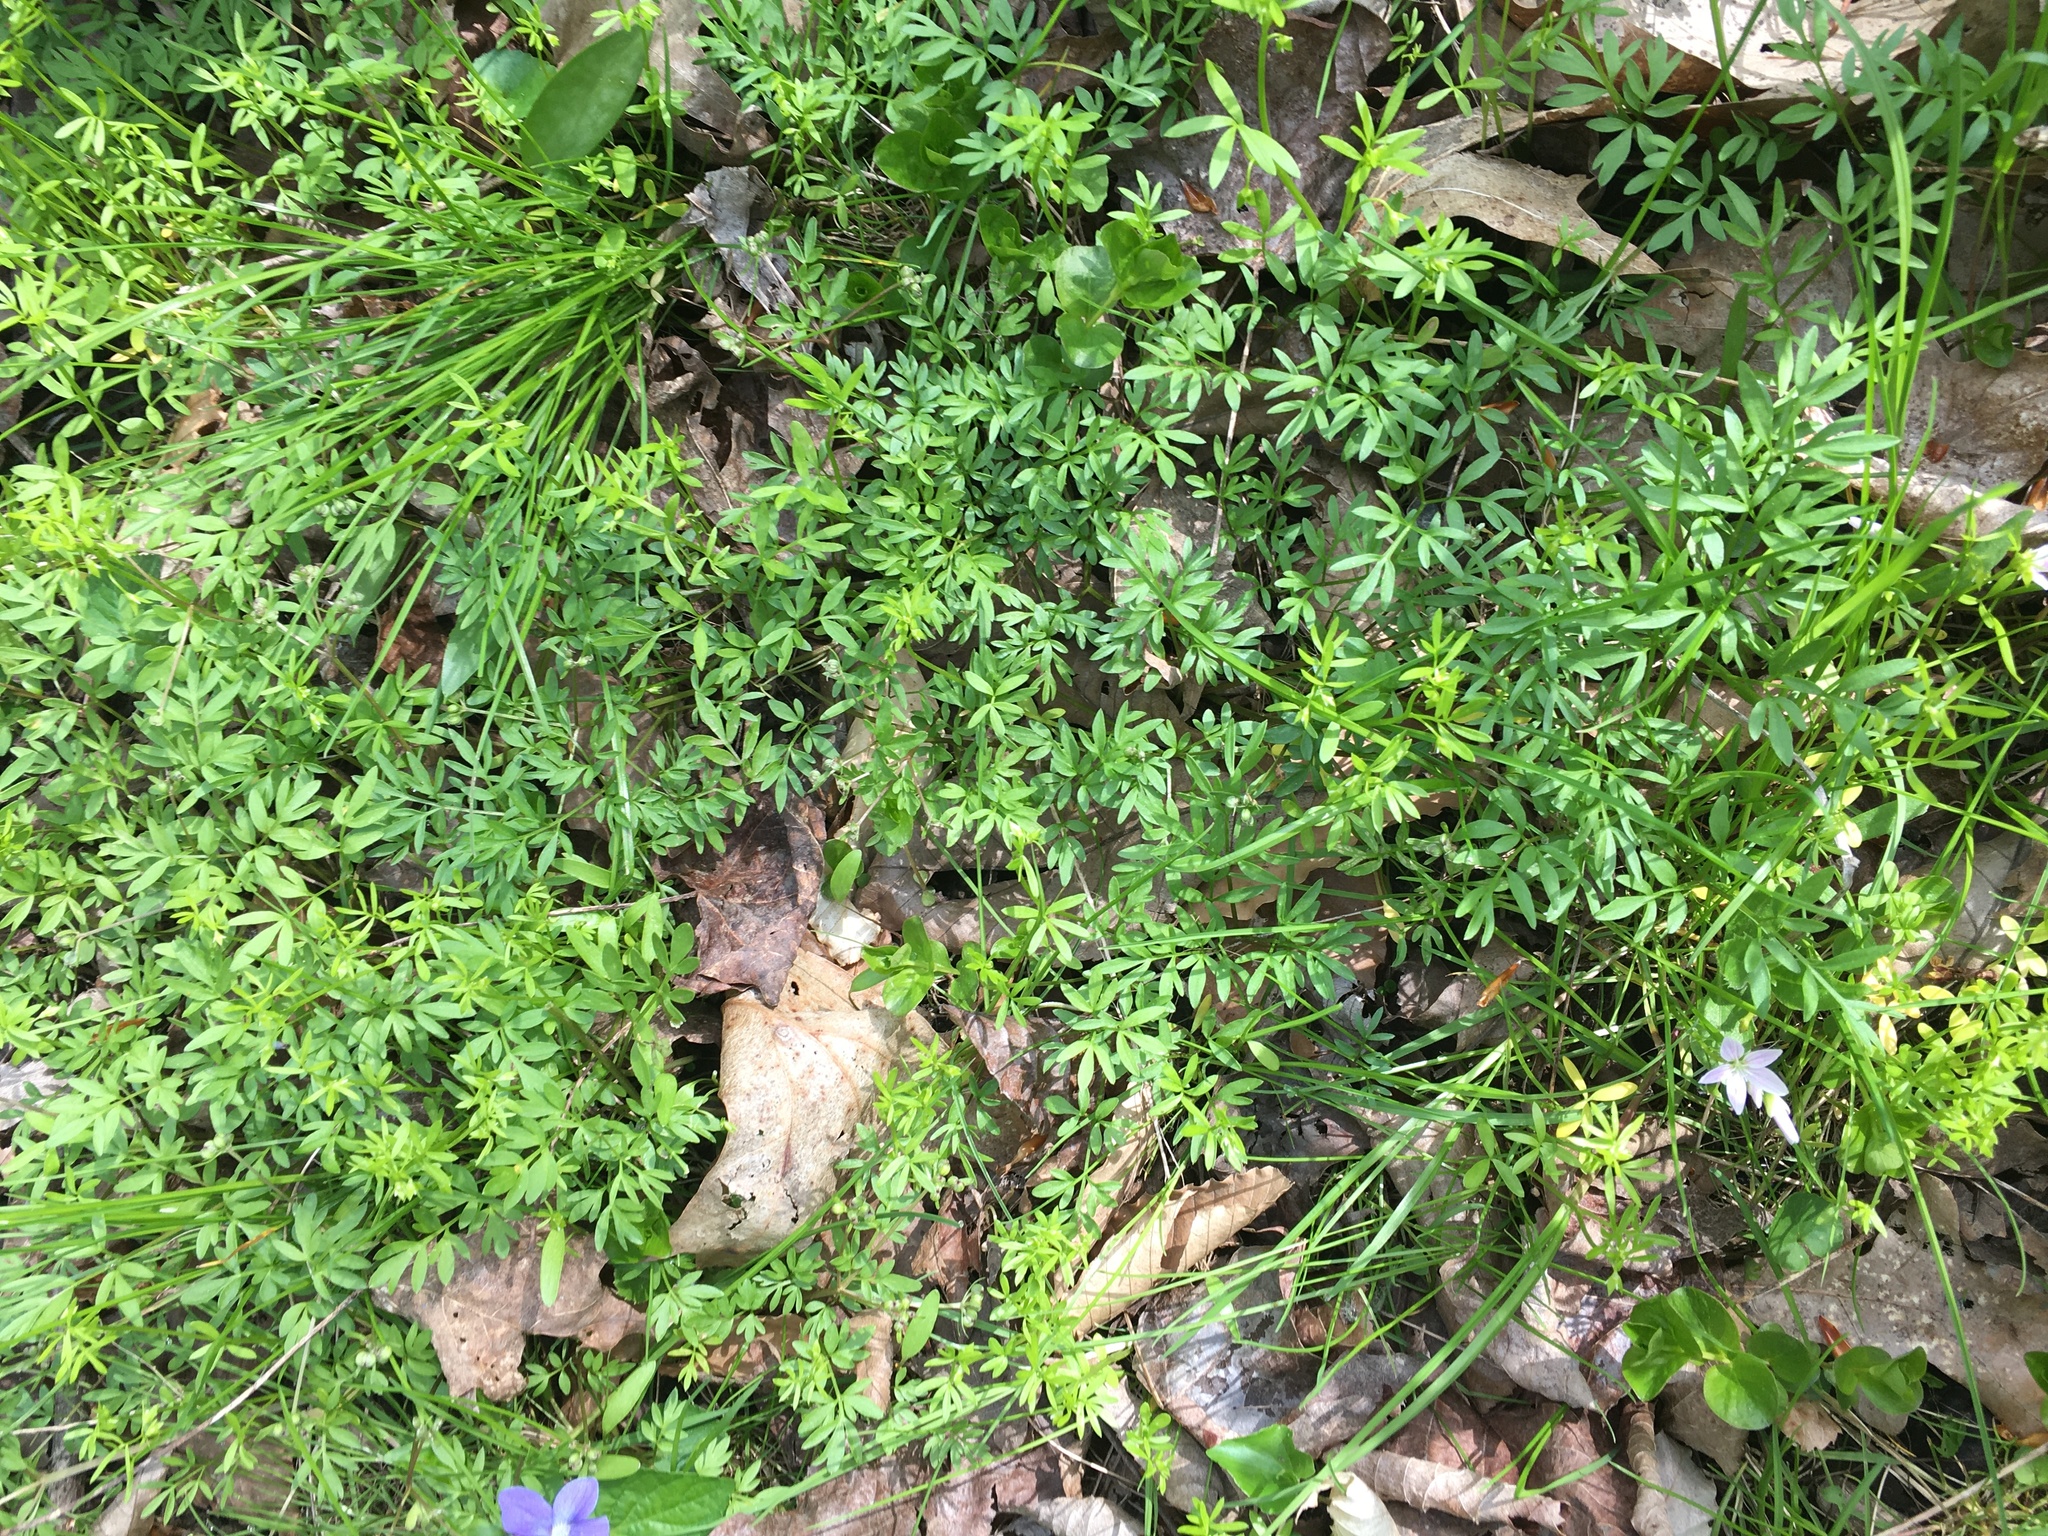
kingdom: Plantae
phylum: Tracheophyta
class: Magnoliopsida
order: Apiales
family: Apiaceae
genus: Erigenia
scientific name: Erigenia bulbosa
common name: Pepper-and-salt
